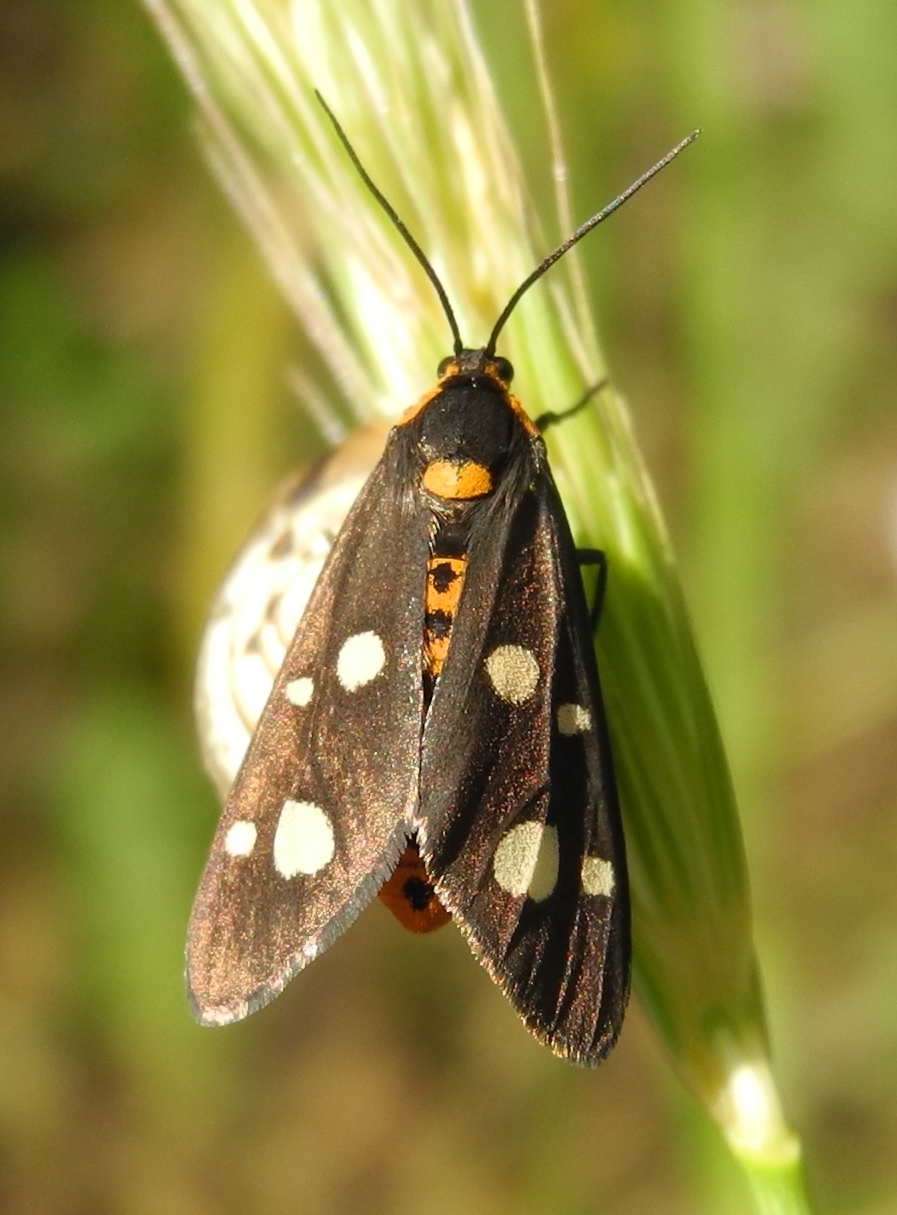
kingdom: Animalia
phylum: Arthropoda
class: Insecta
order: Lepidoptera
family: Erebidae
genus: Dysauxes
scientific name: Dysauxes punctata
